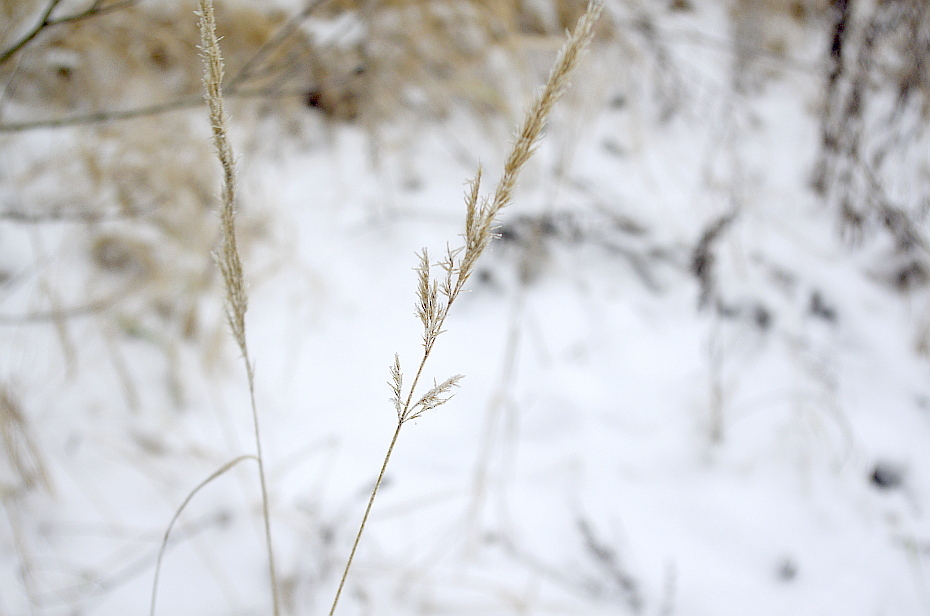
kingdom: Plantae
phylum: Tracheophyta
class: Liliopsida
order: Poales
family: Poaceae
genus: Calamagrostis
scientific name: Calamagrostis epigejos
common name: Wood small-reed
